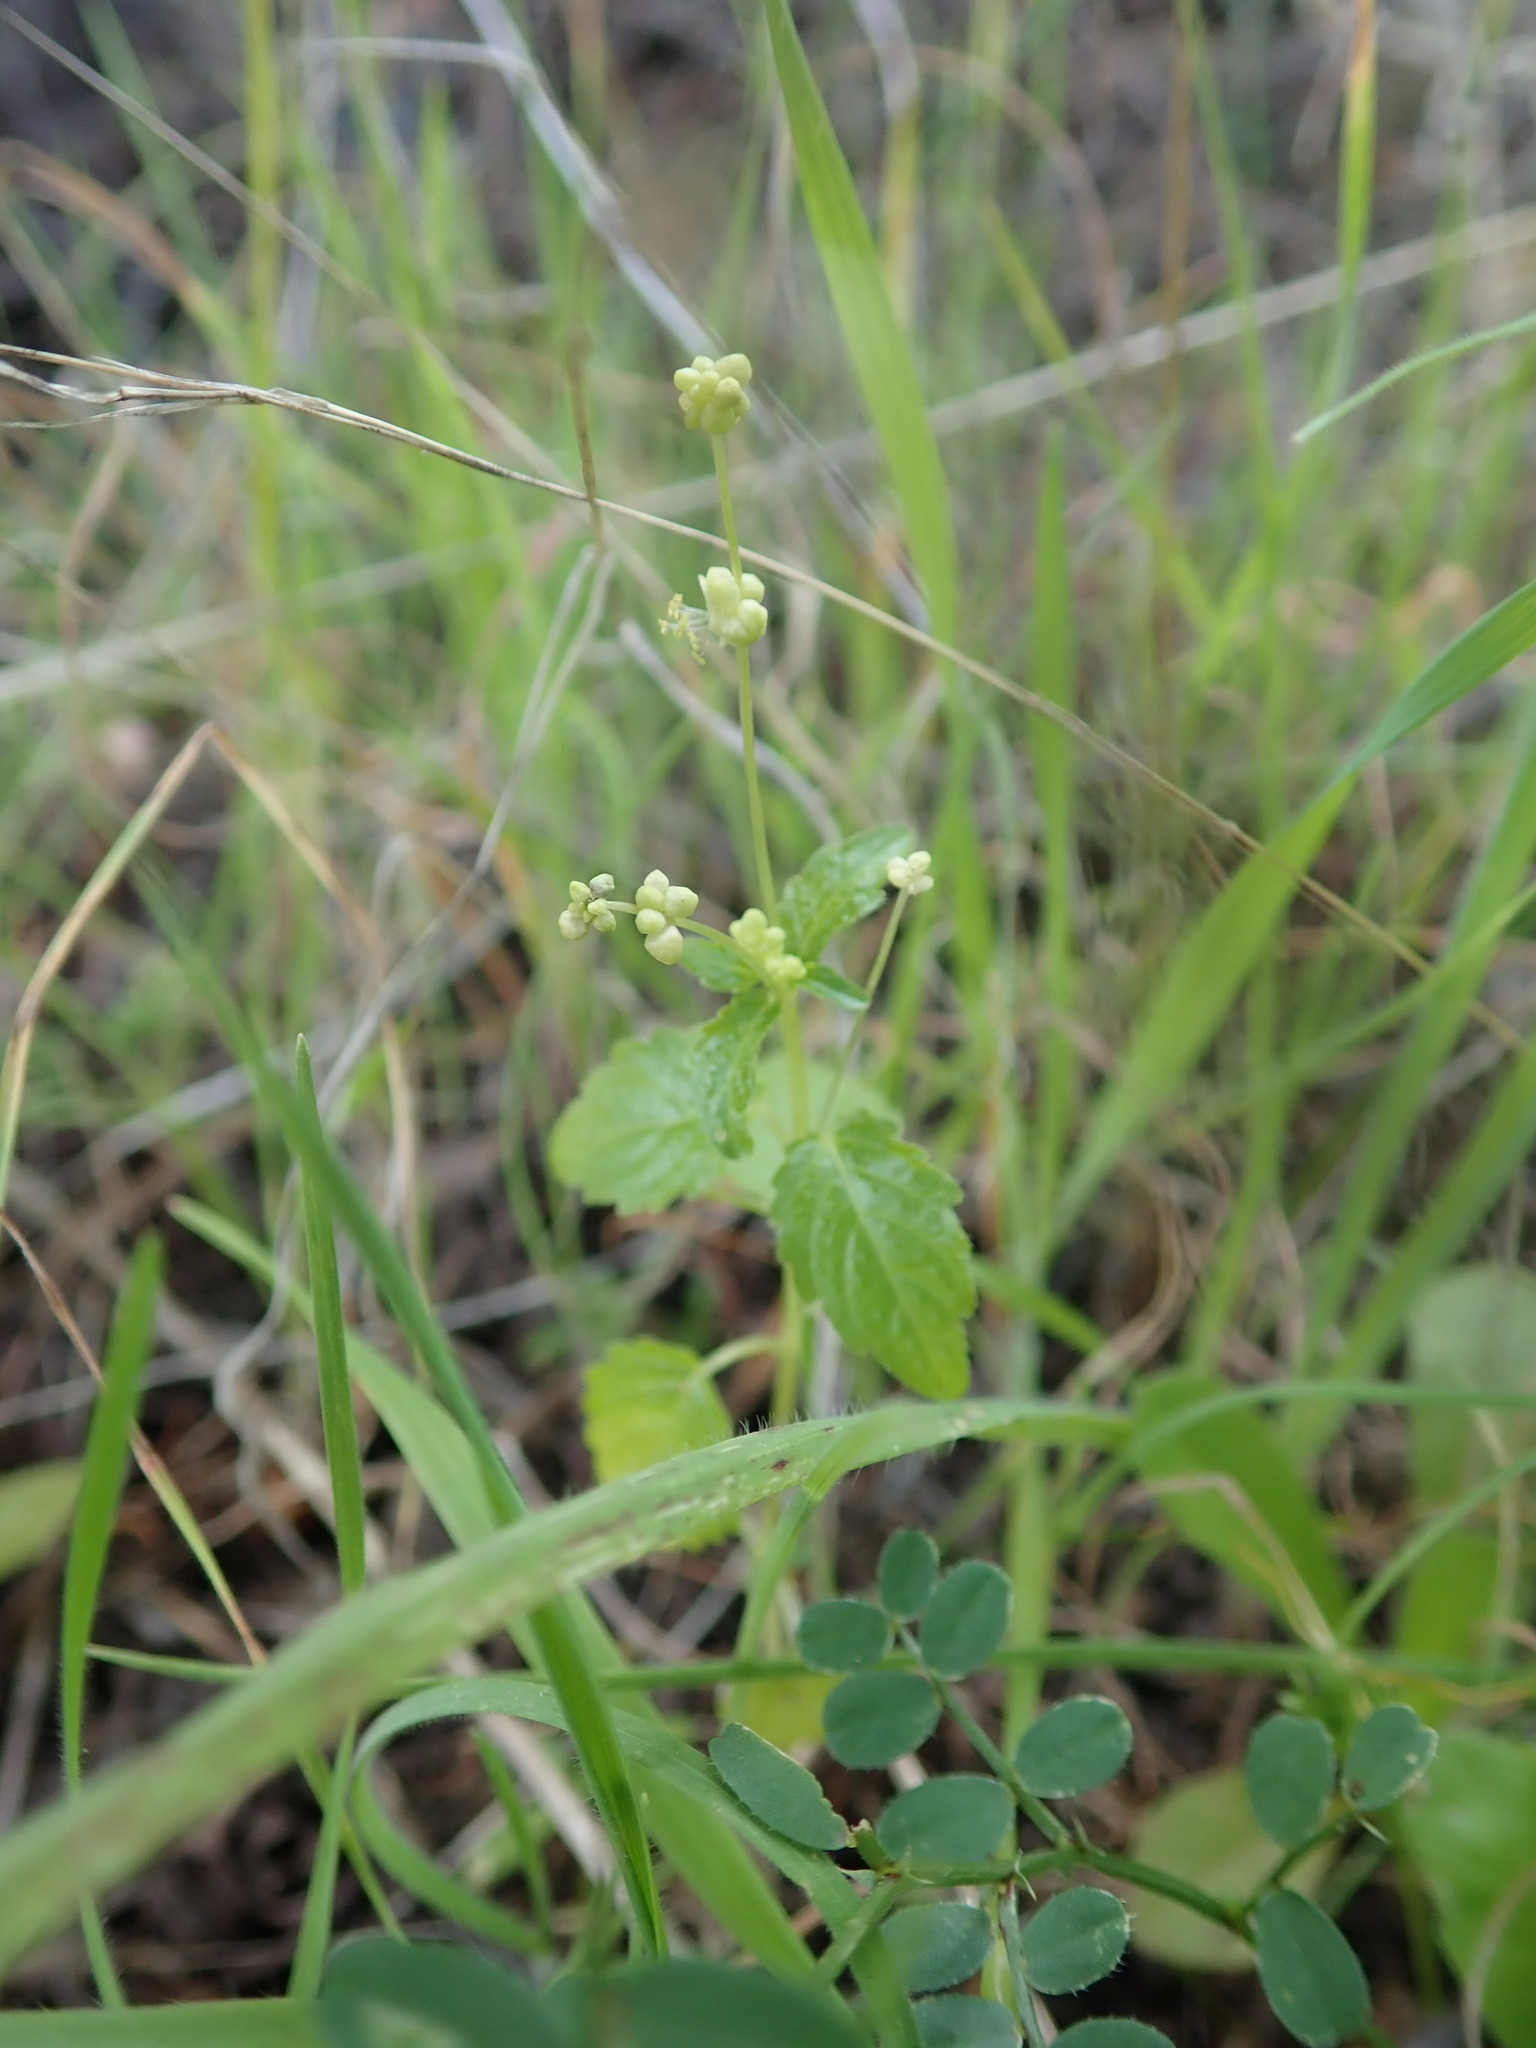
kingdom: Plantae
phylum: Tracheophyta
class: Magnoliopsida
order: Malpighiales
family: Euphorbiaceae
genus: Mercurialis
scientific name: Mercurialis annua
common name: Annual mercury
